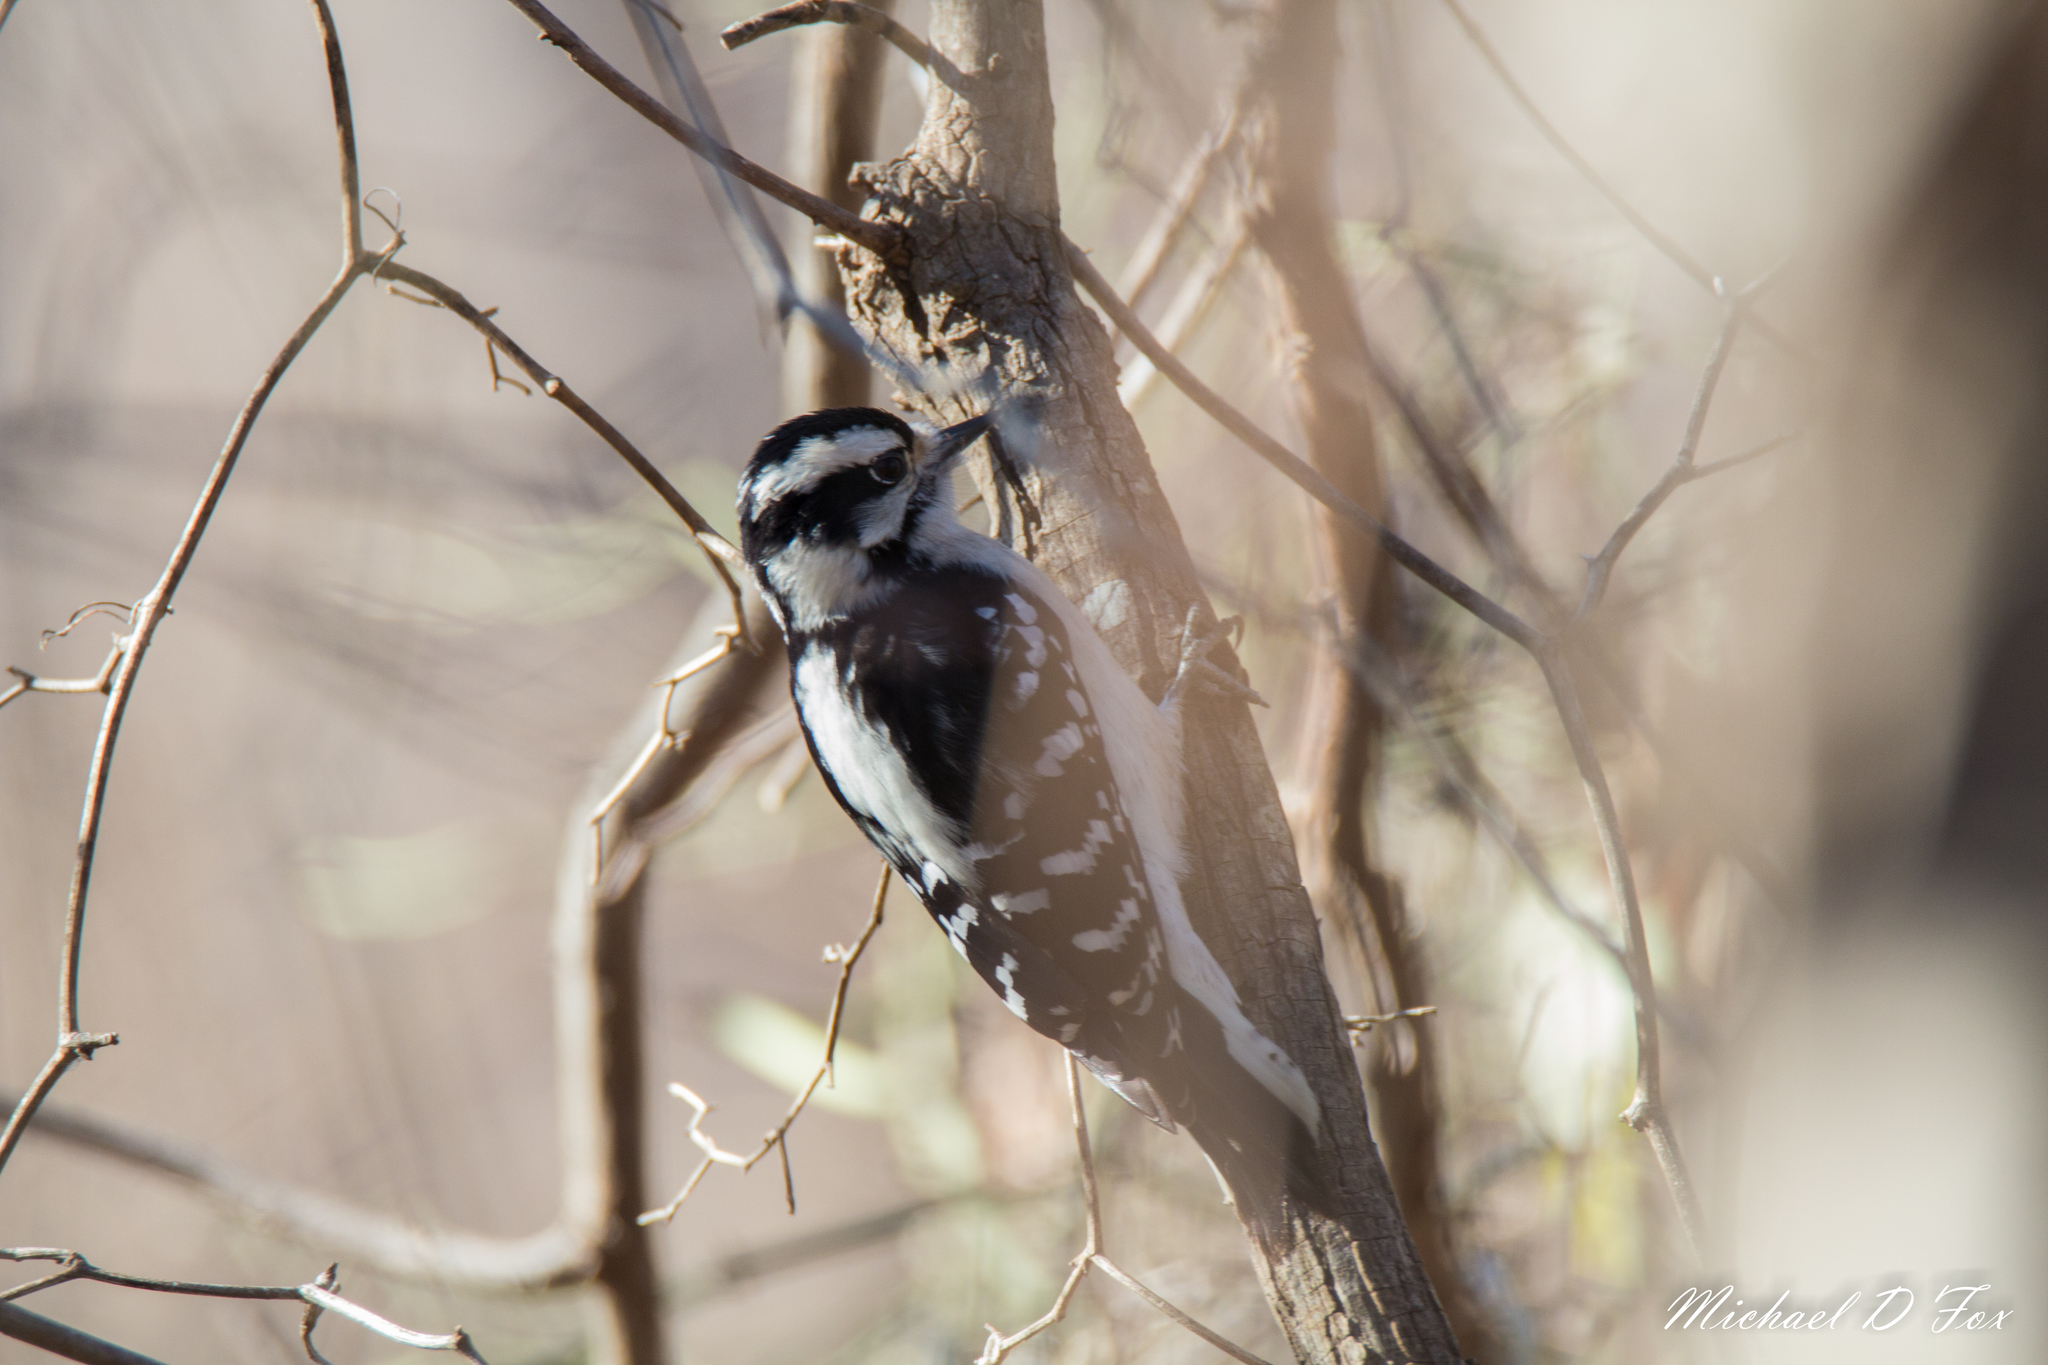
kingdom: Animalia
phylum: Chordata
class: Aves
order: Piciformes
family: Picidae
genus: Dryobates
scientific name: Dryobates pubescens
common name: Downy woodpecker
